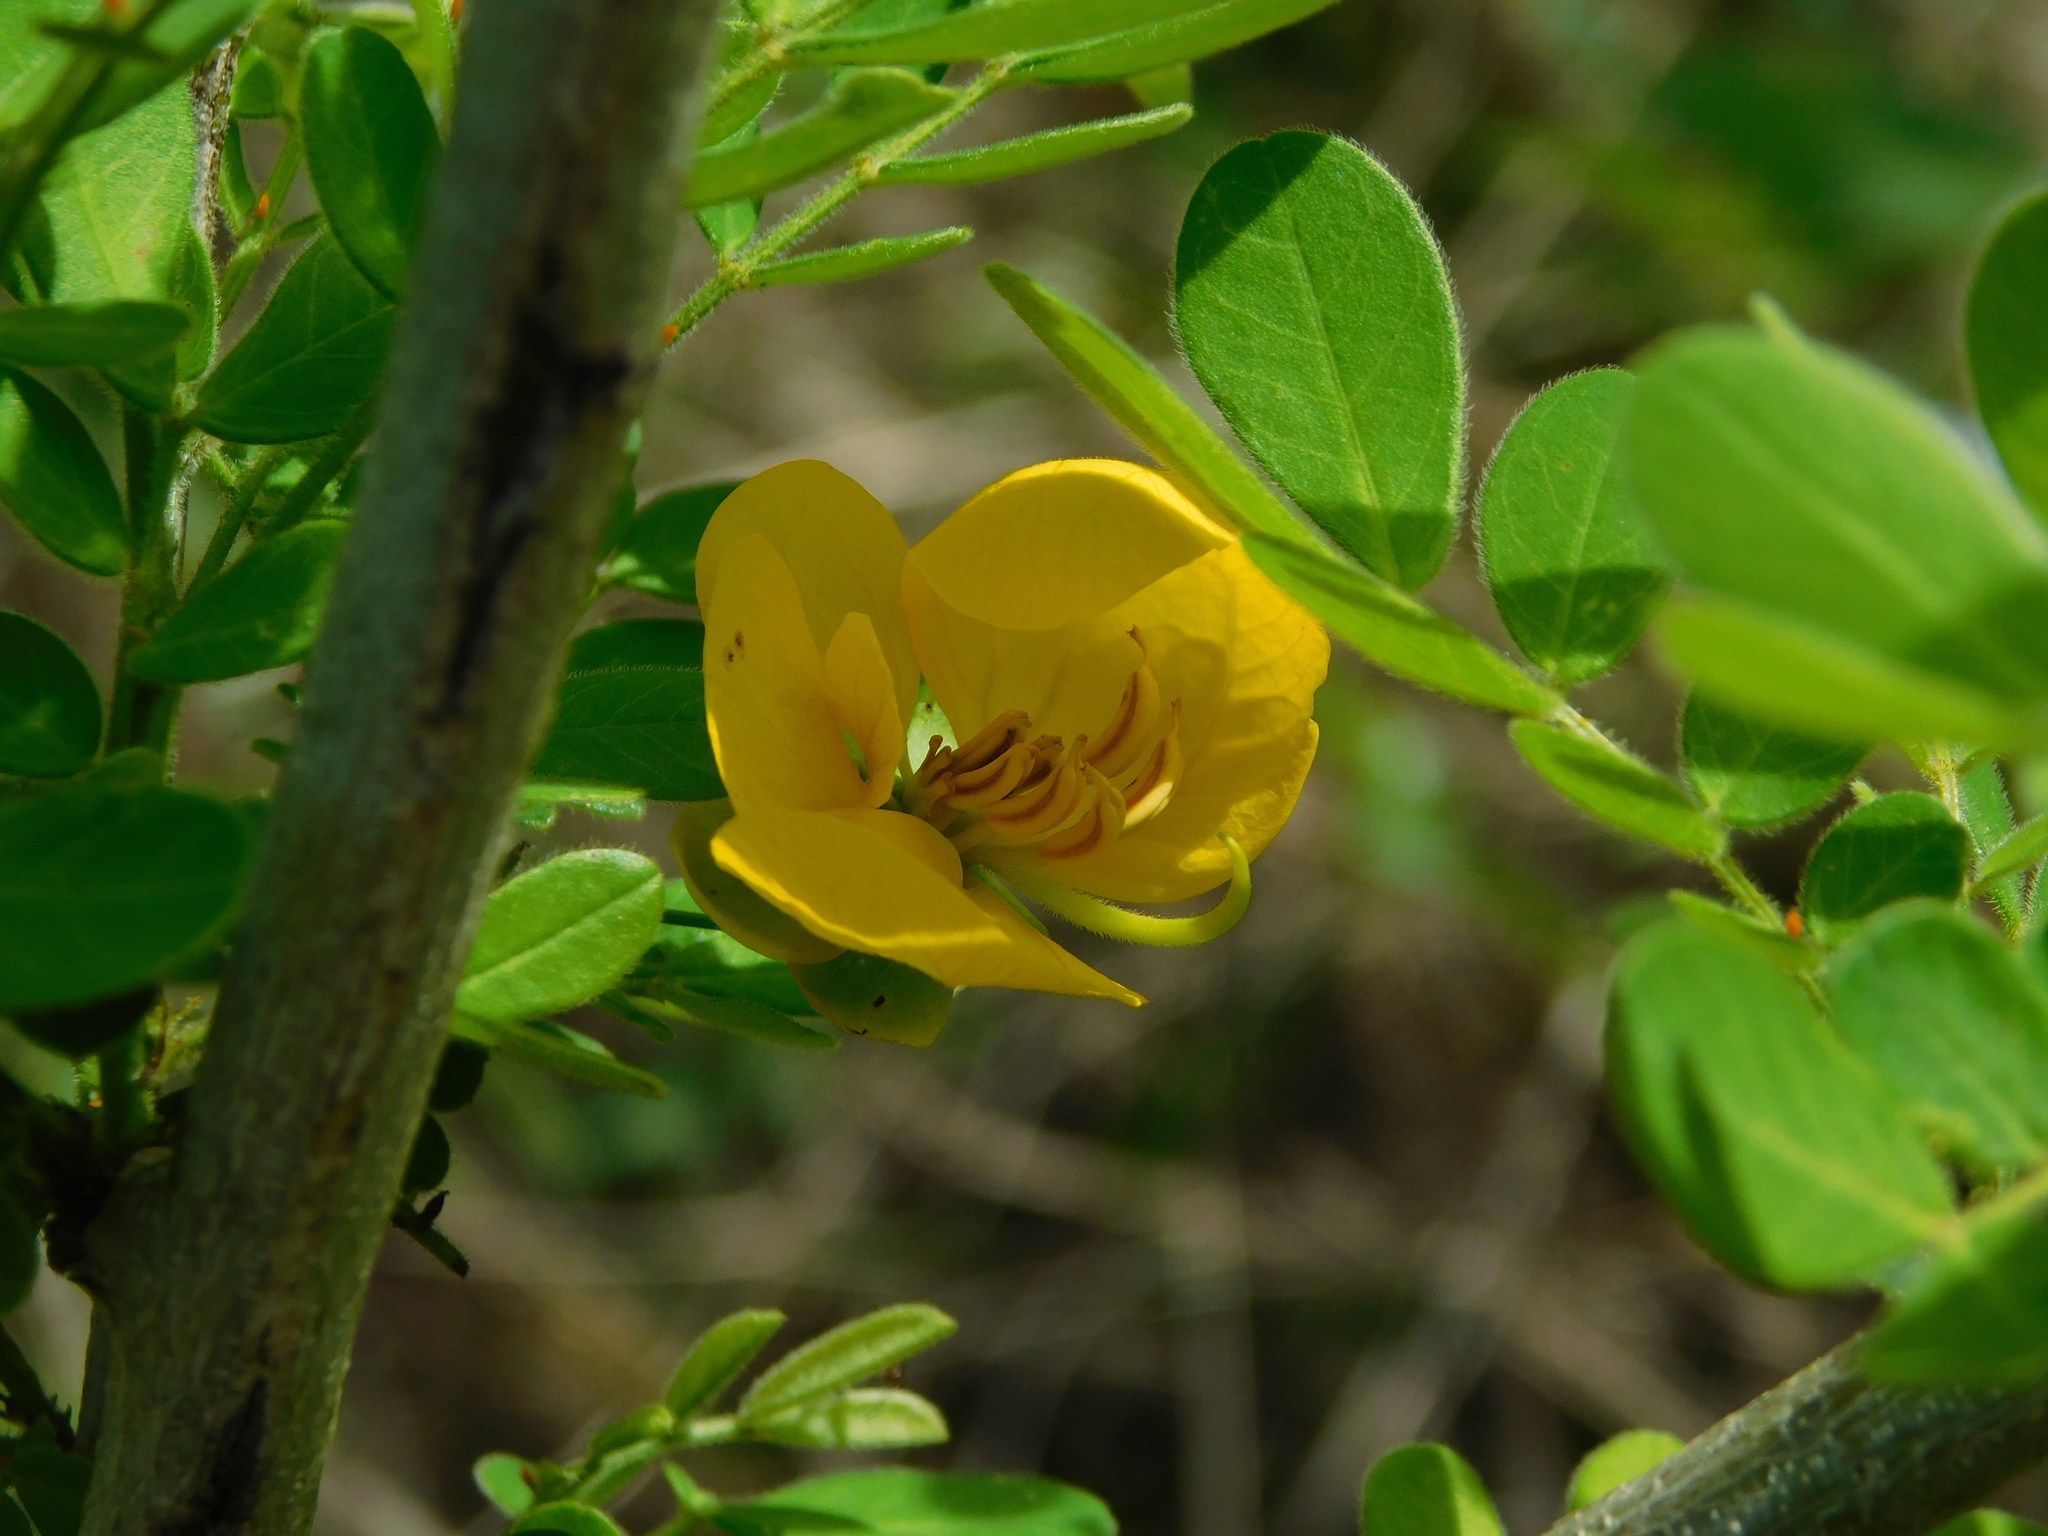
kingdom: Plantae
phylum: Tracheophyta
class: Magnoliopsida
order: Fabales
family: Fabaceae
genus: Senna
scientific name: Senna obtusifolia
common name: Java-bean
